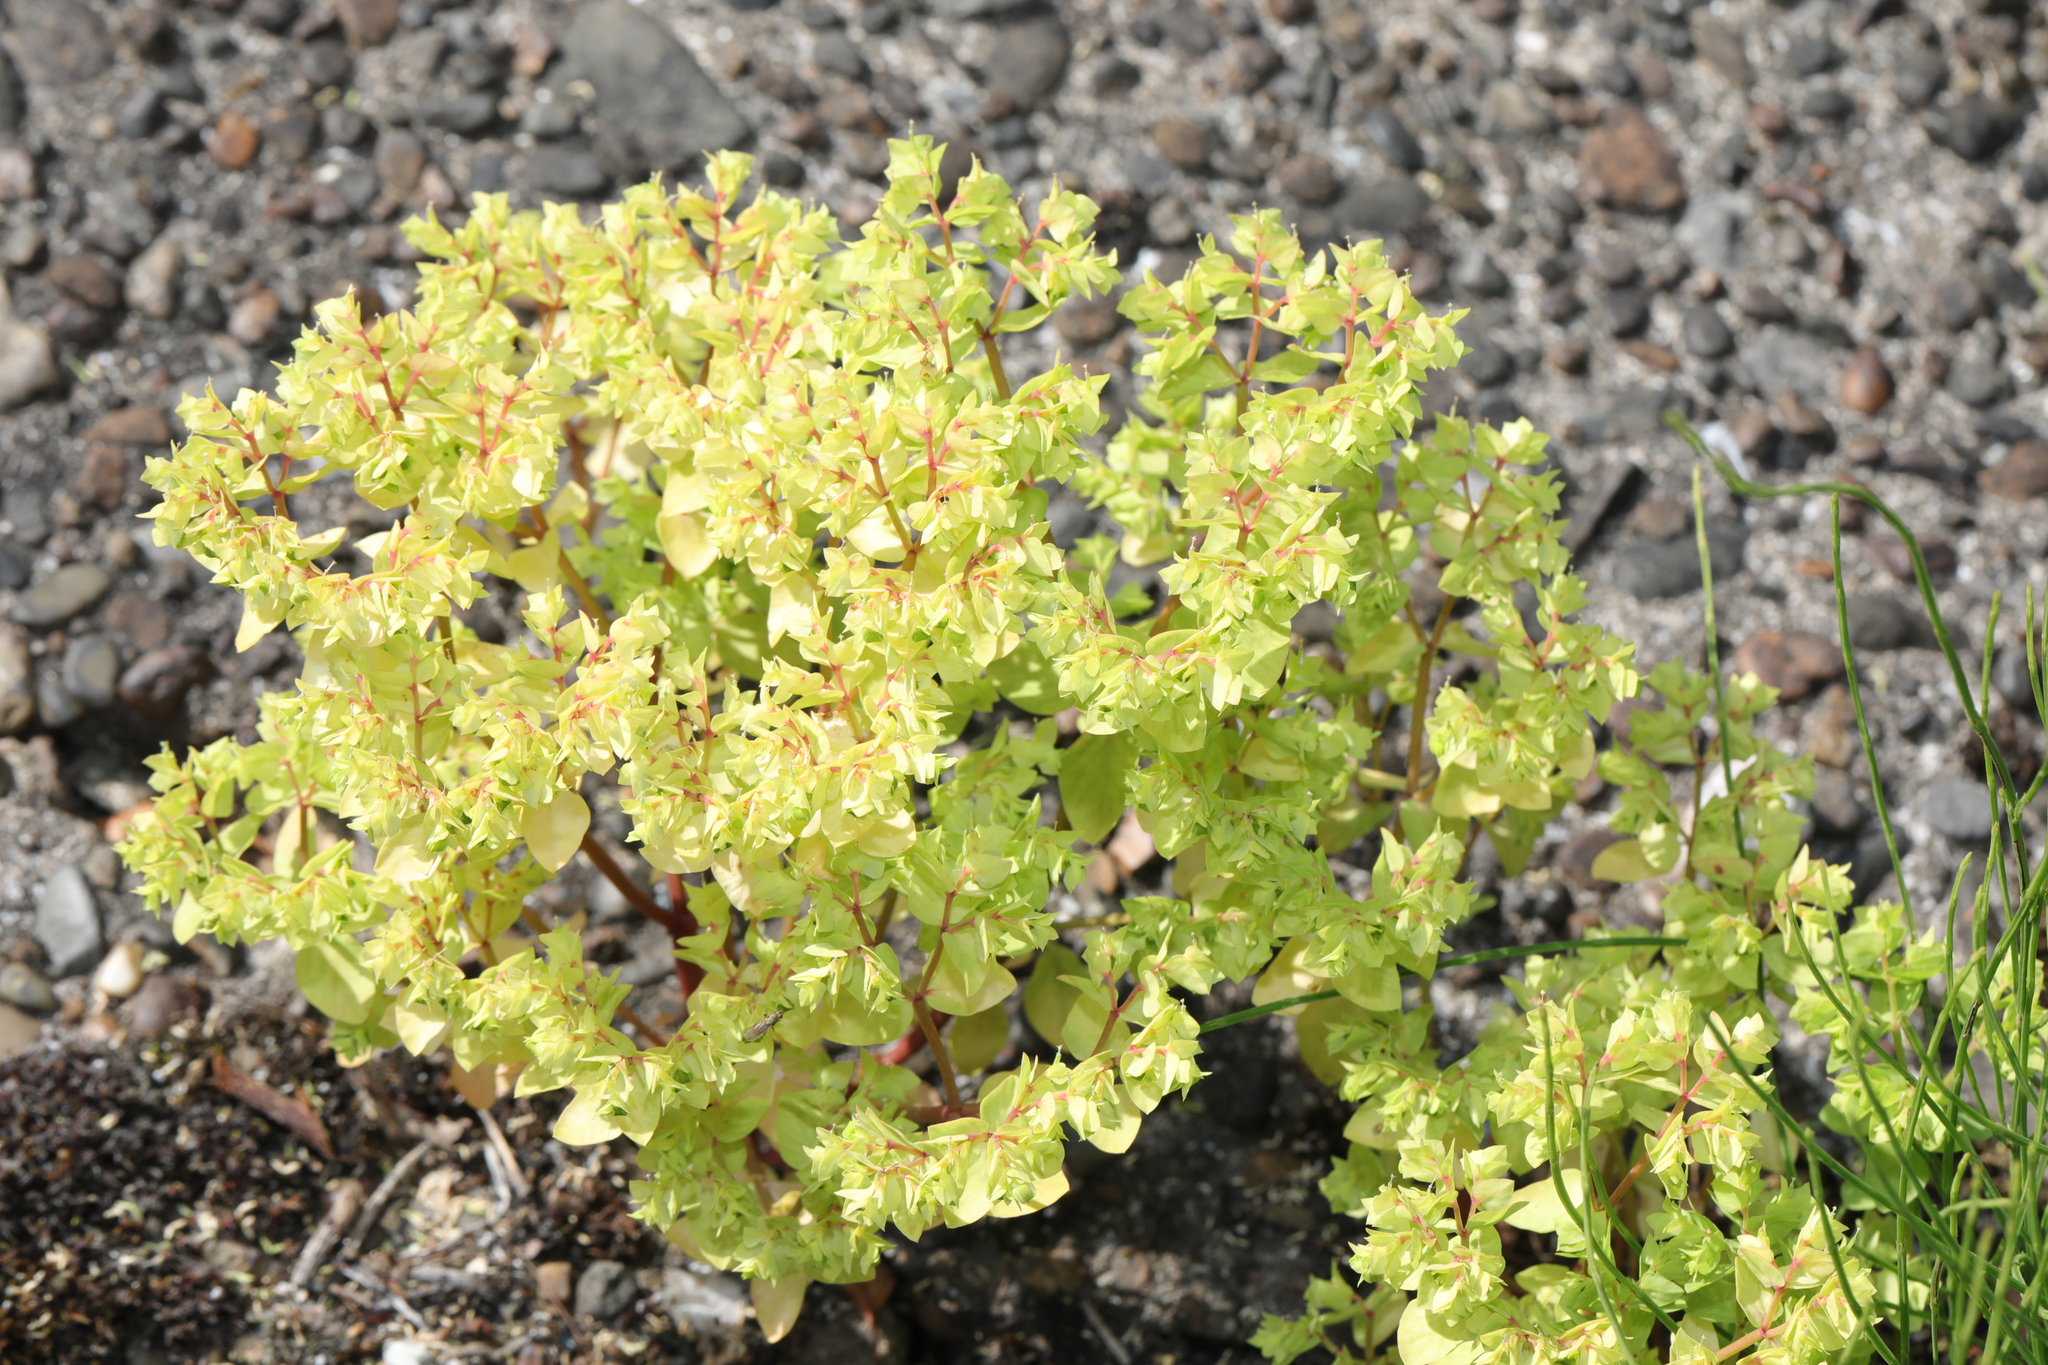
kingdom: Plantae
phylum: Tracheophyta
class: Magnoliopsida
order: Malpighiales
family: Euphorbiaceae
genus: Euphorbia
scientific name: Euphorbia peplus
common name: Petty spurge
